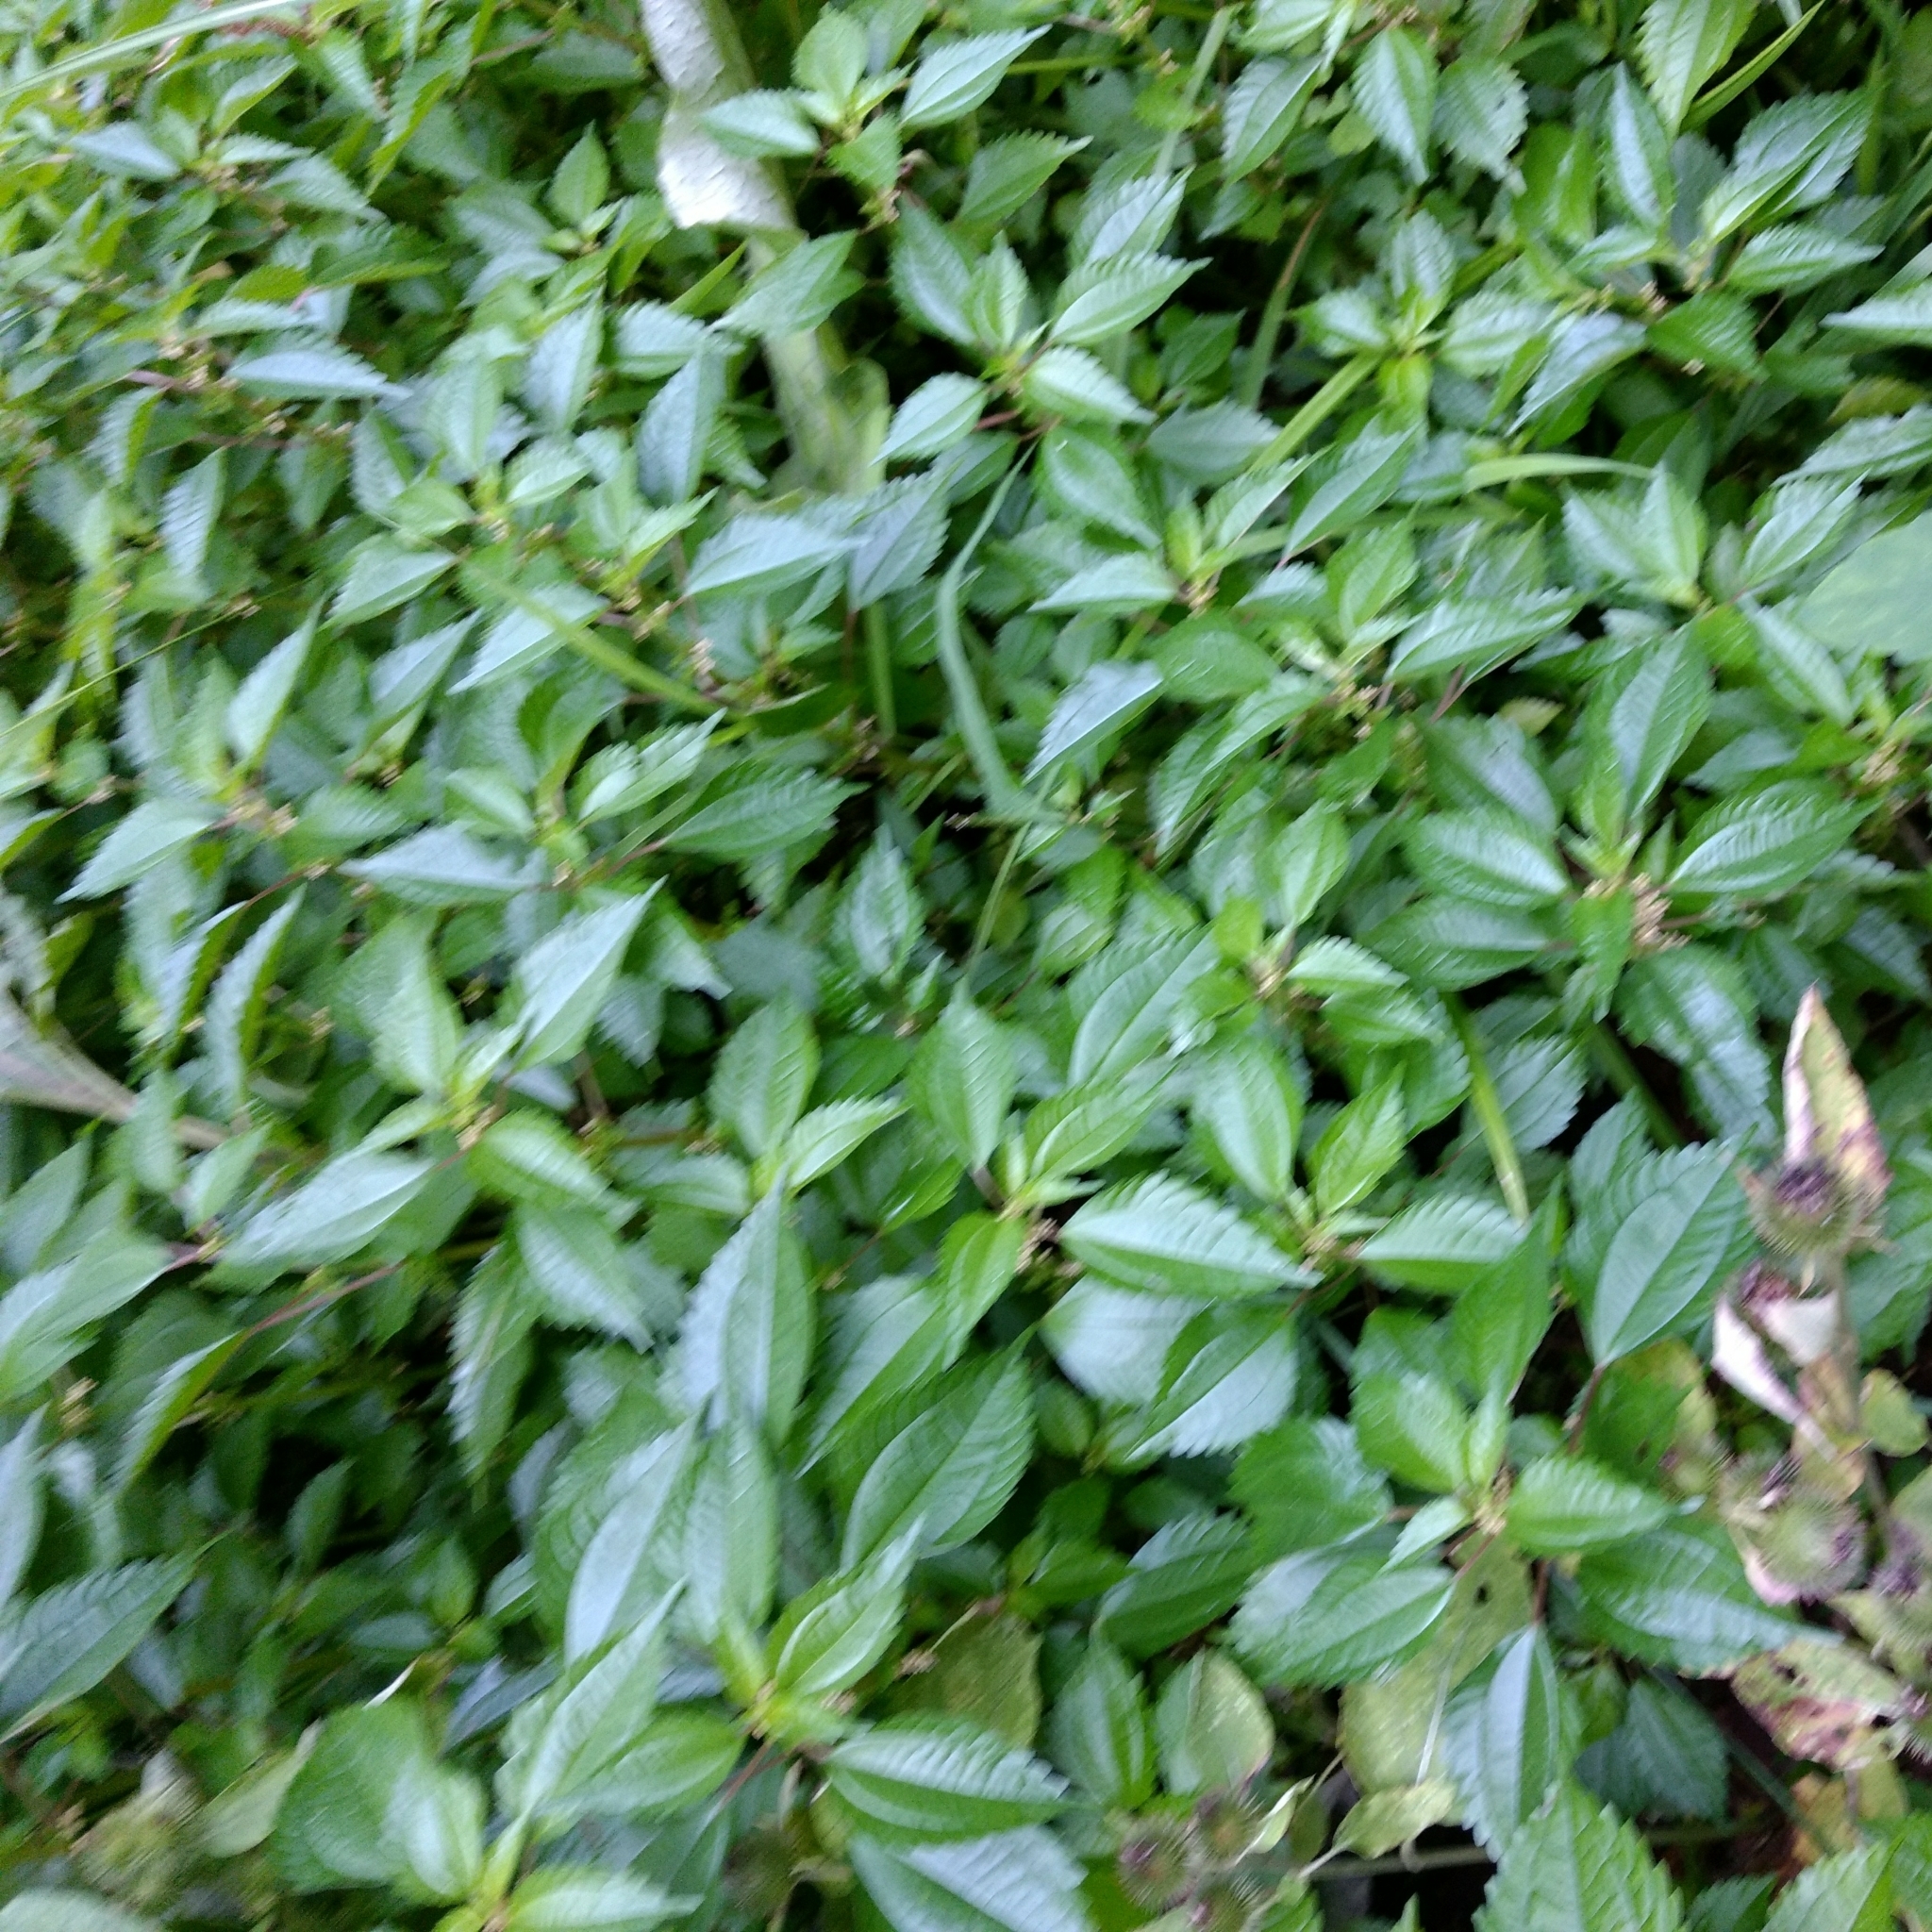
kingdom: Plantae
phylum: Tracheophyta
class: Magnoliopsida
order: Rosales
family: Urticaceae
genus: Pilea
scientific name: Pilea pumila
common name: Clearweed
